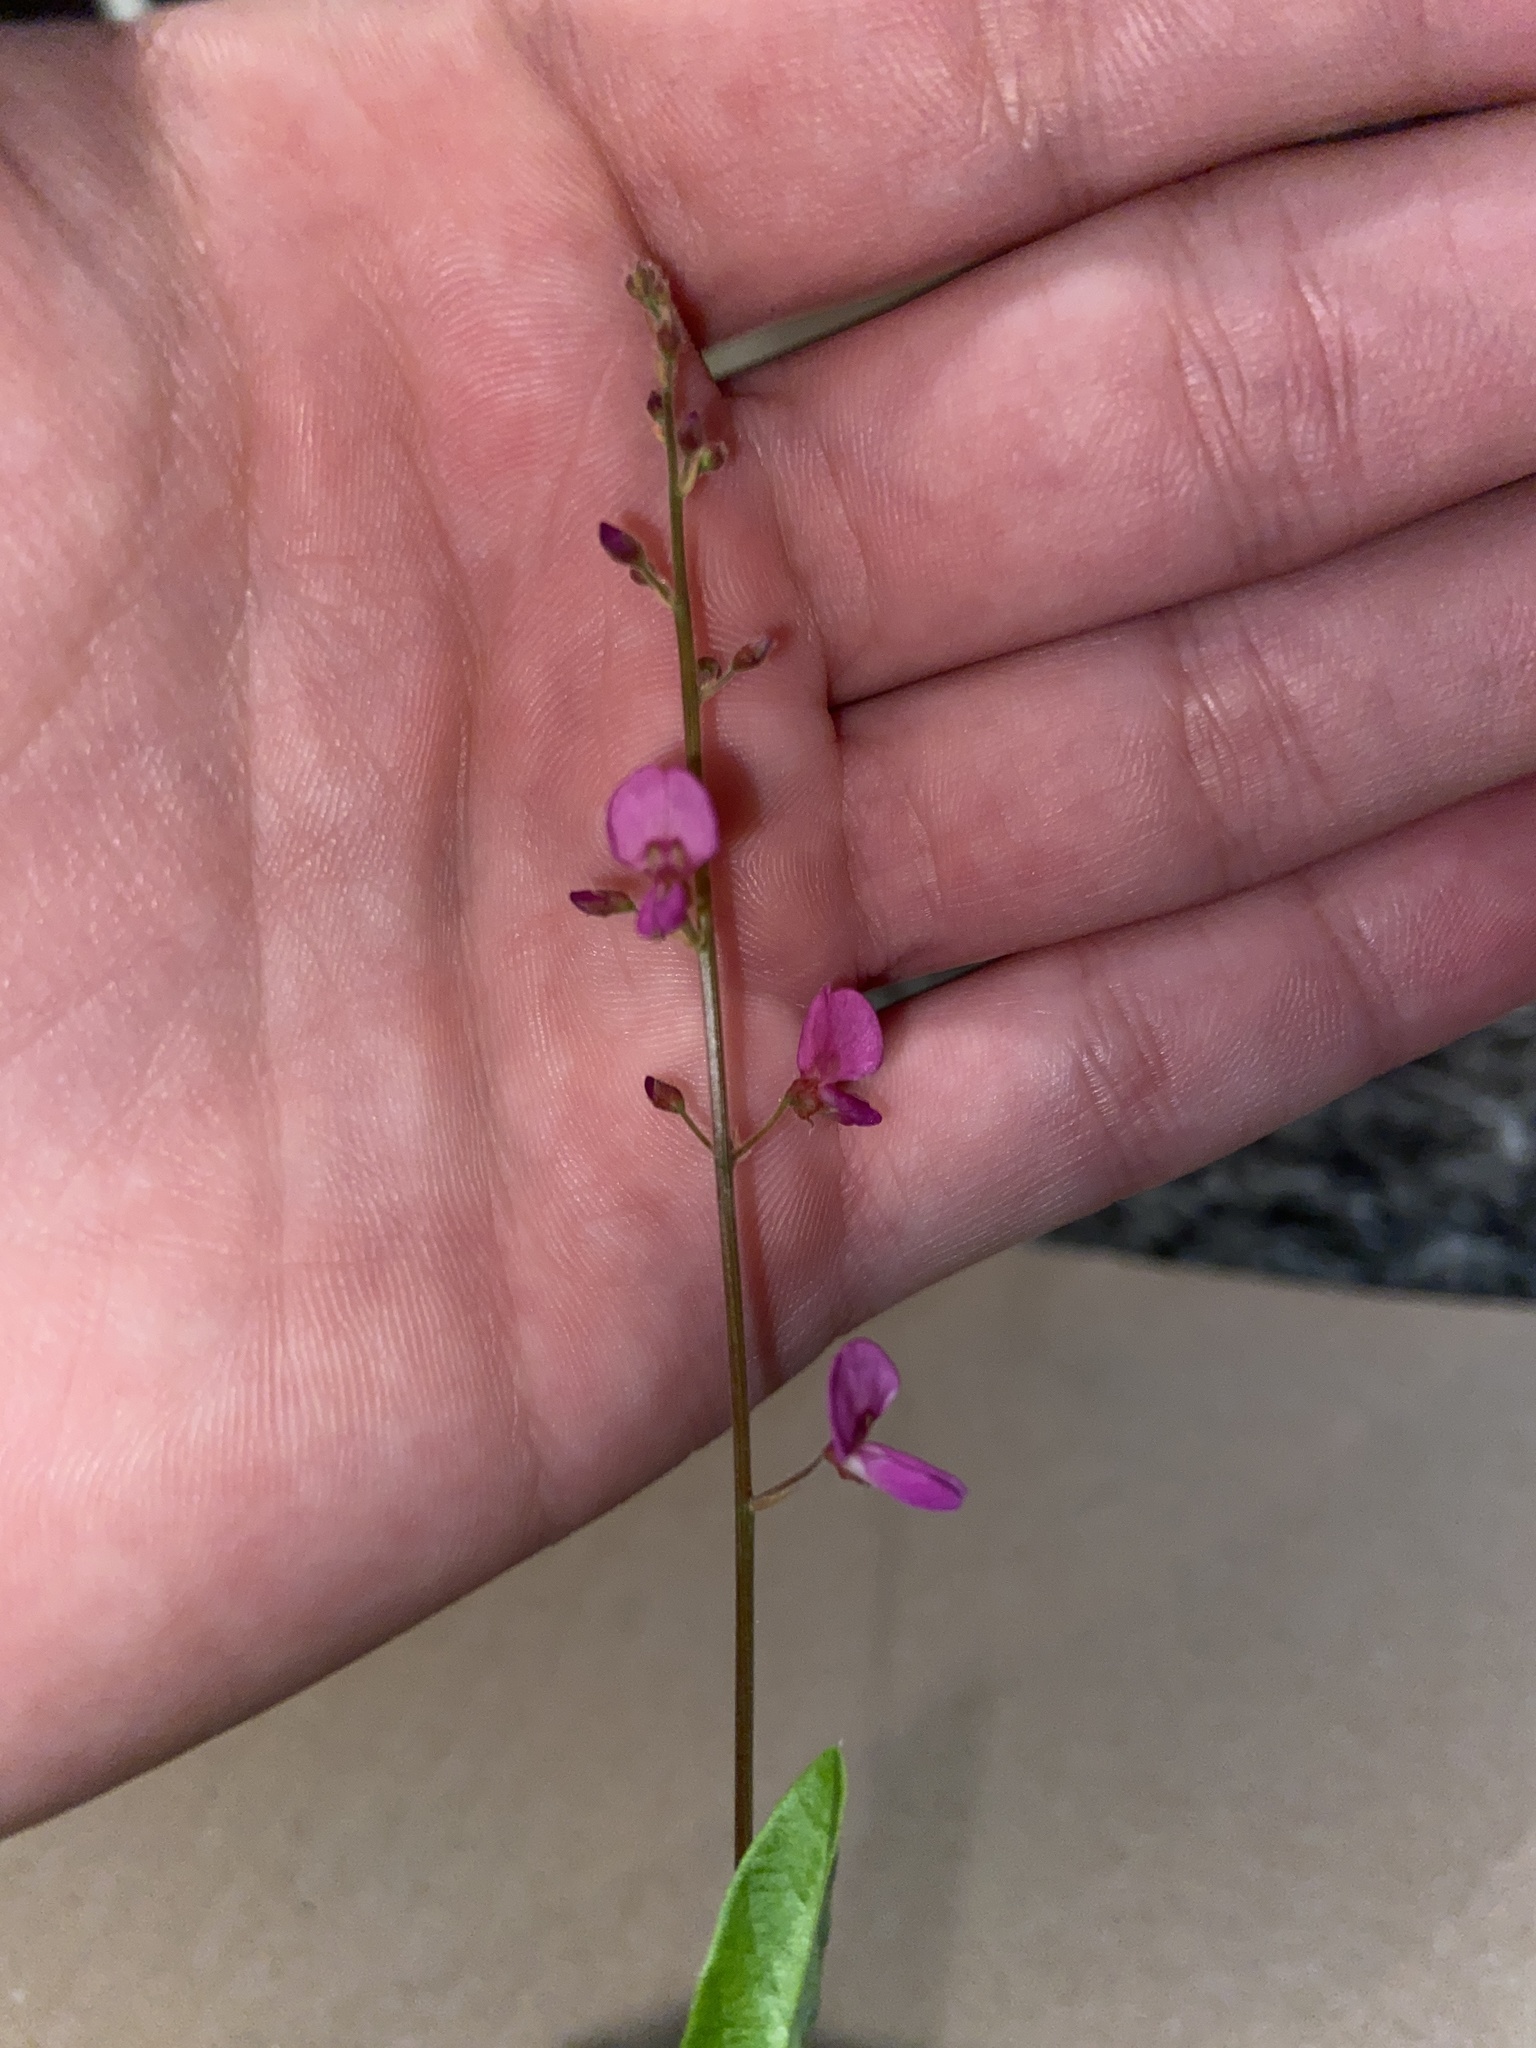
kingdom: Plantae
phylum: Tracheophyta
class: Magnoliopsida
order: Fabales
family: Fabaceae
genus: Desmodium
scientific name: Desmodium incanum
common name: Tickclover
